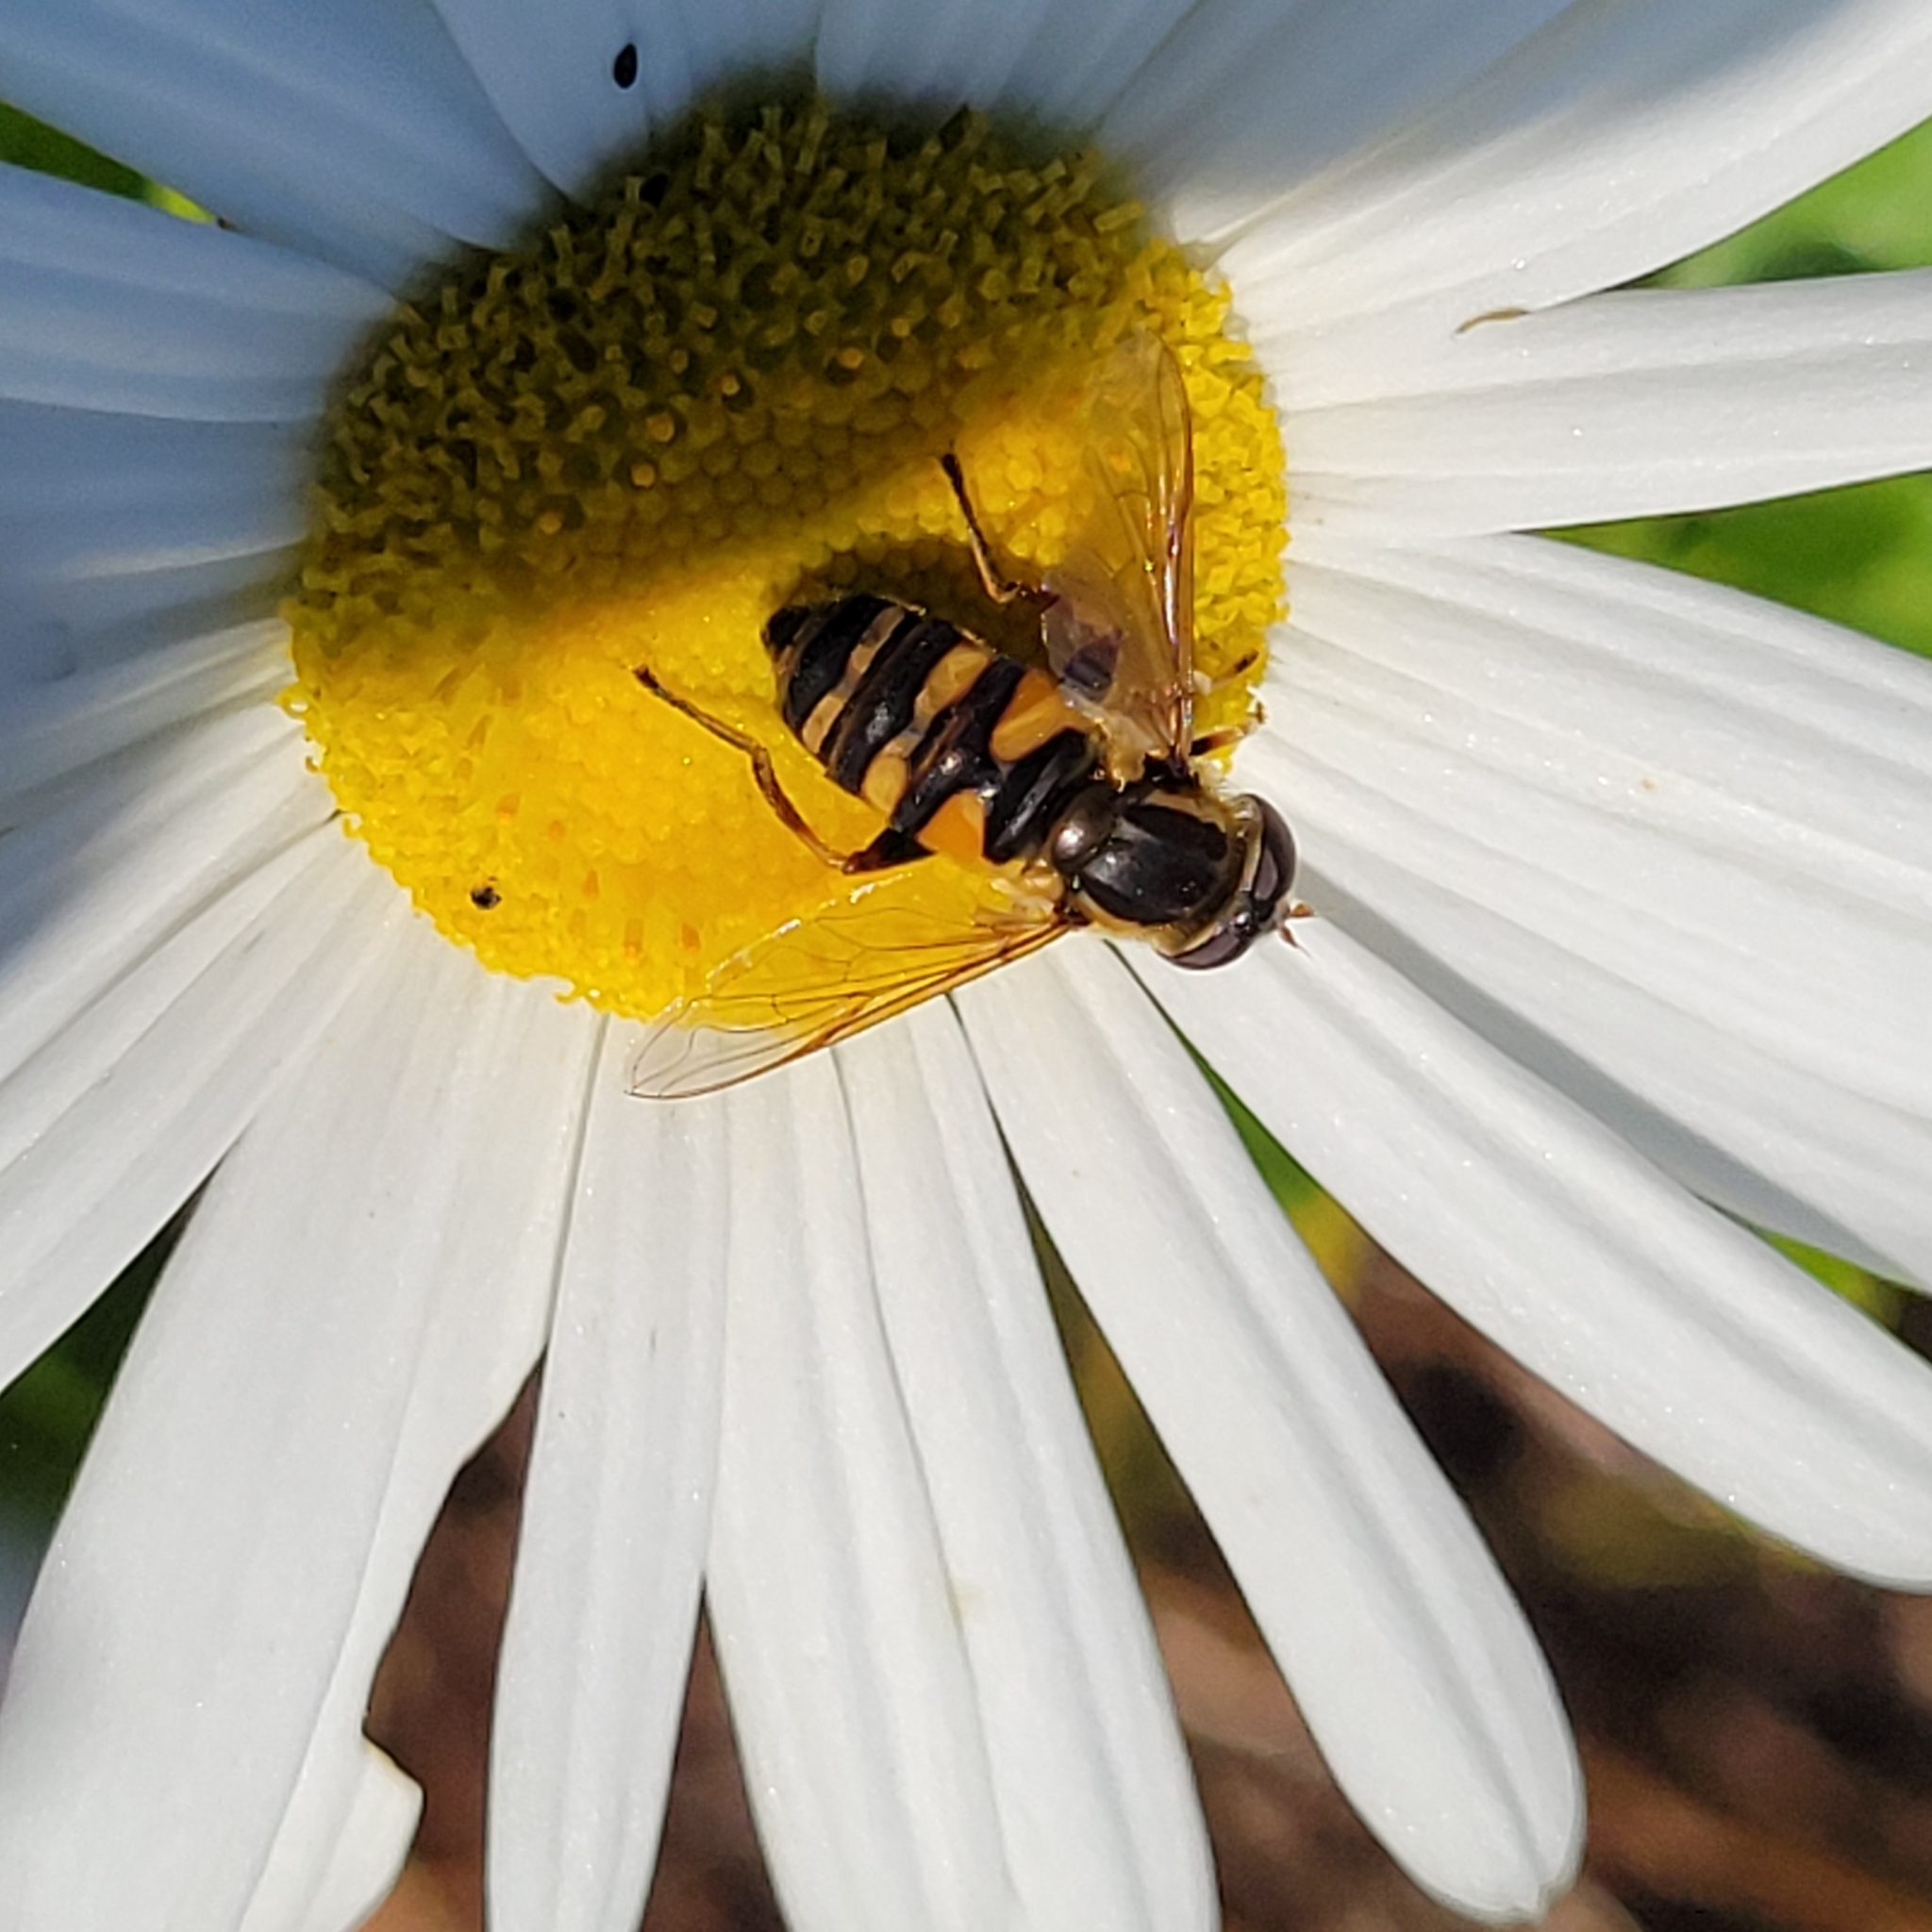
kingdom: Animalia
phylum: Arthropoda
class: Insecta
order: Diptera
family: Syrphidae
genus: Helophilus
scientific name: Helophilus fasciatus
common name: Narrow-headed marsh fly
